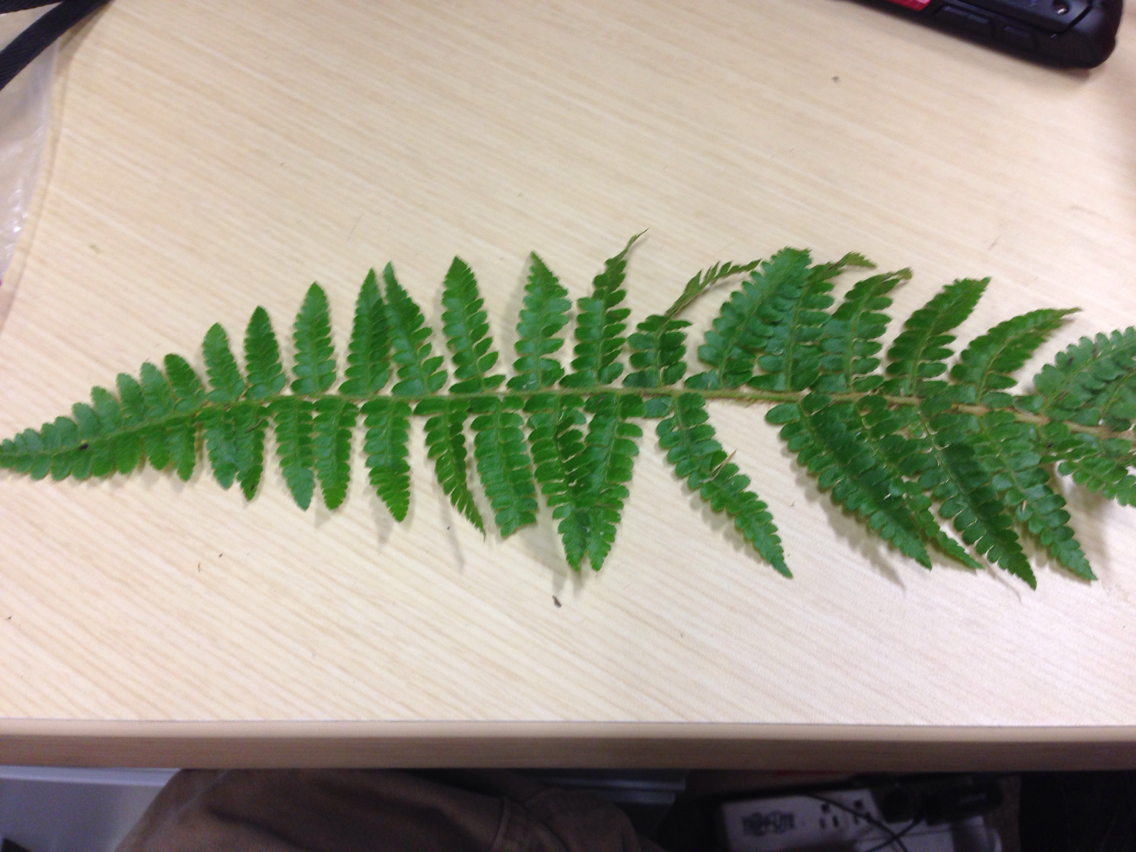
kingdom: Plantae
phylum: Tracheophyta
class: Polypodiopsida
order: Polypodiales
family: Dryopteridaceae
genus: Polystichum
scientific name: Polystichum potteri
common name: Potter's holly fern
